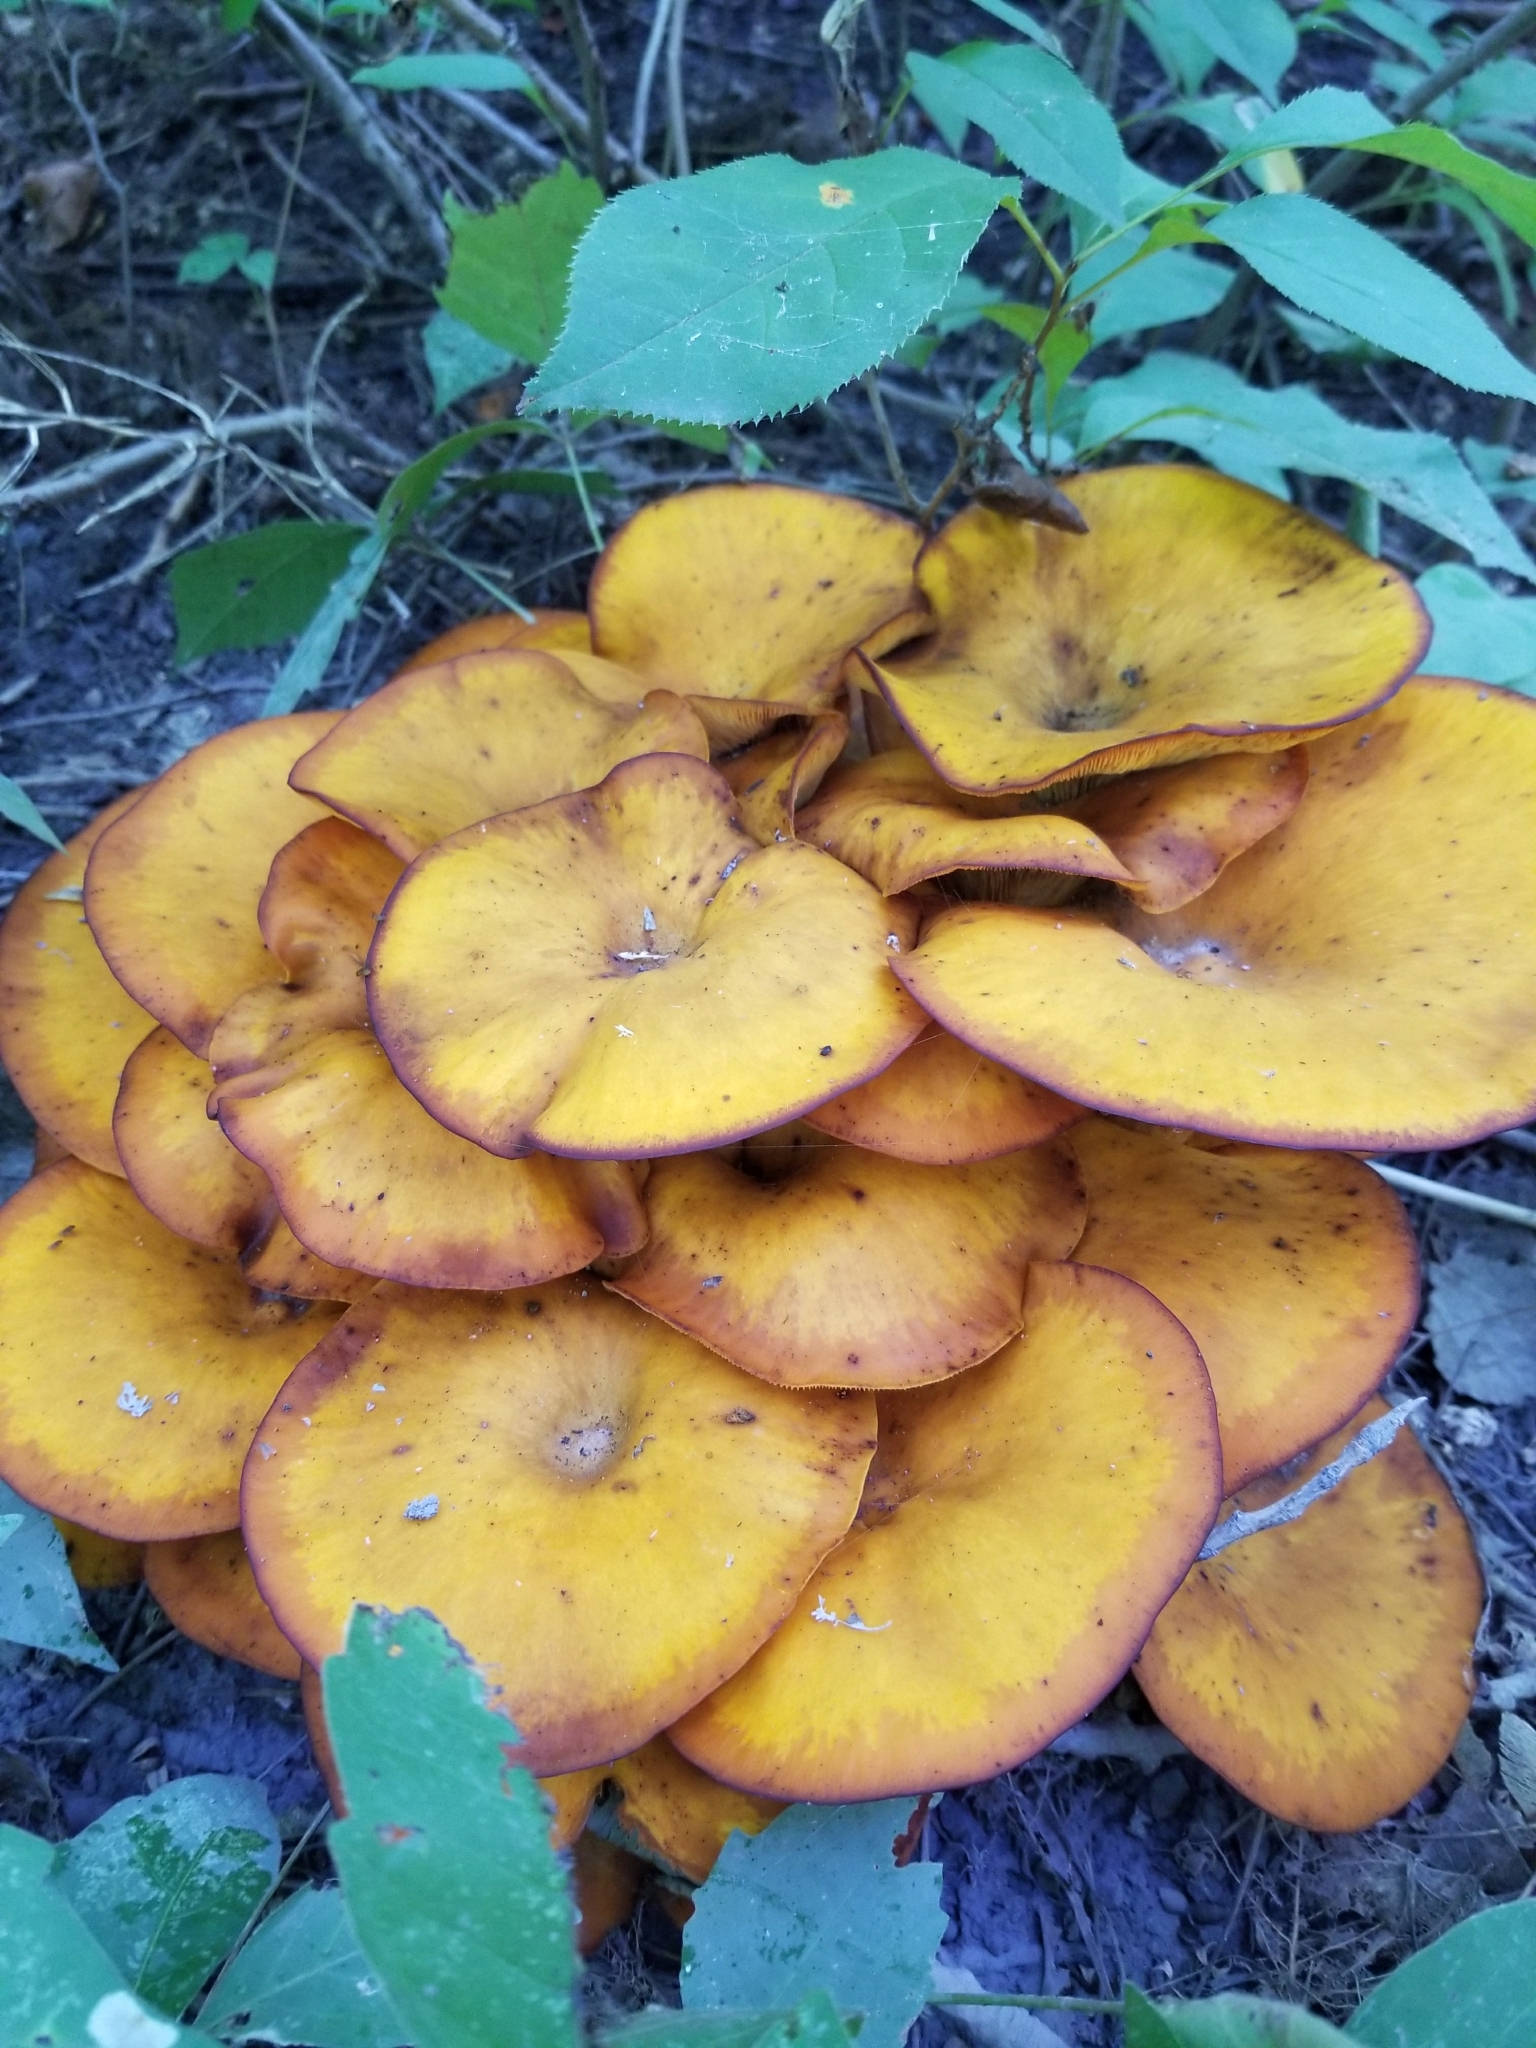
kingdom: Fungi
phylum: Basidiomycota
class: Agaricomycetes
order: Agaricales
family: Omphalotaceae
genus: Omphalotus
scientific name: Omphalotus illudens
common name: Jack o lantern
